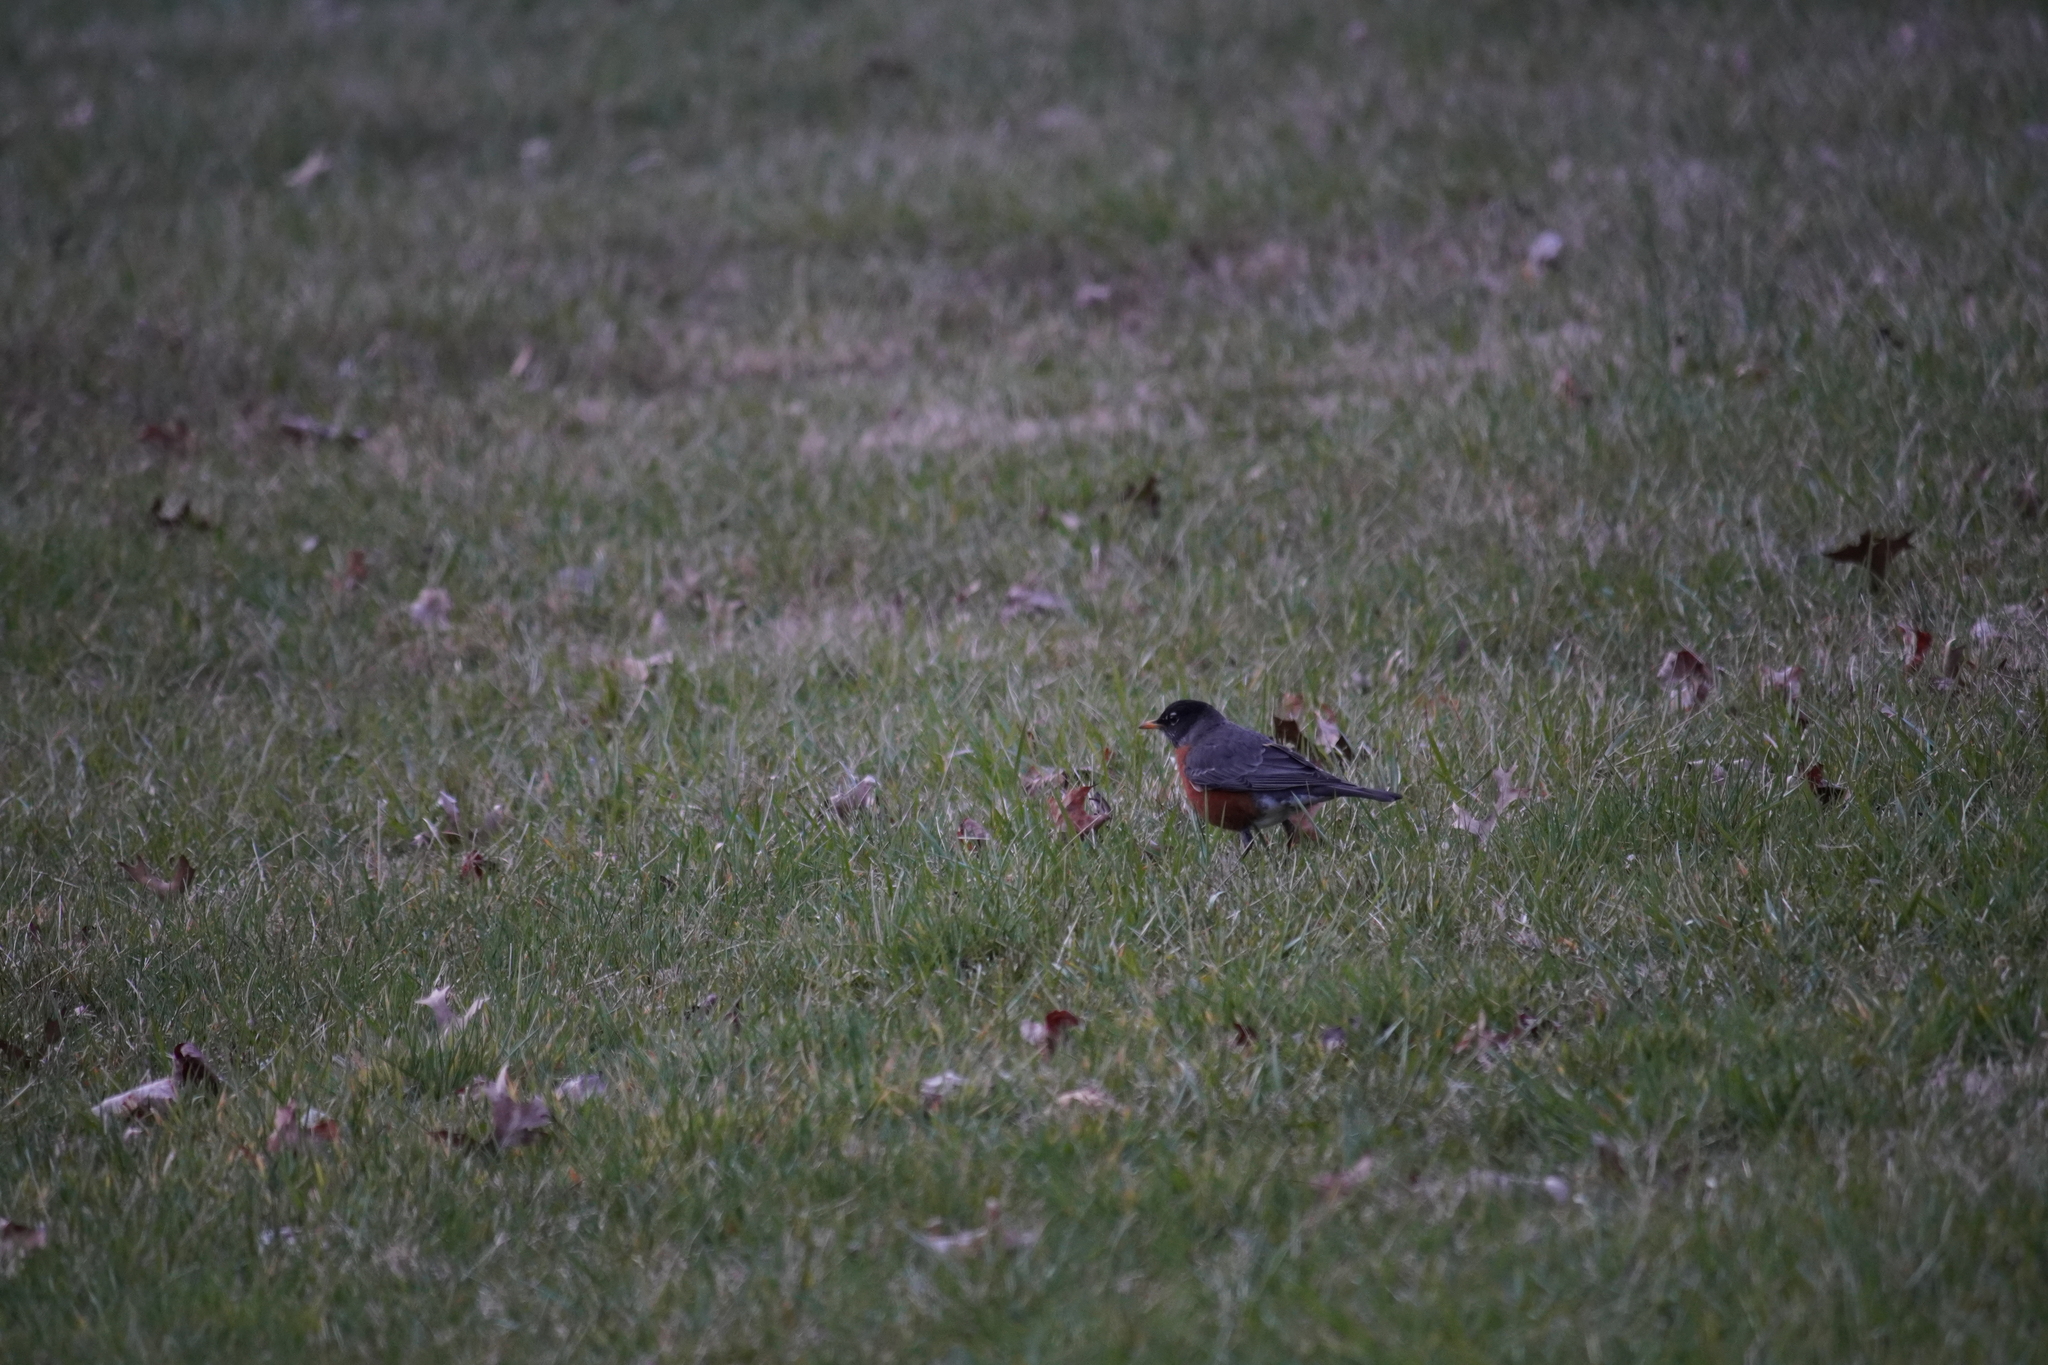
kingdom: Animalia
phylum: Chordata
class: Aves
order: Passeriformes
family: Turdidae
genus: Turdus
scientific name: Turdus migratorius
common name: American robin
